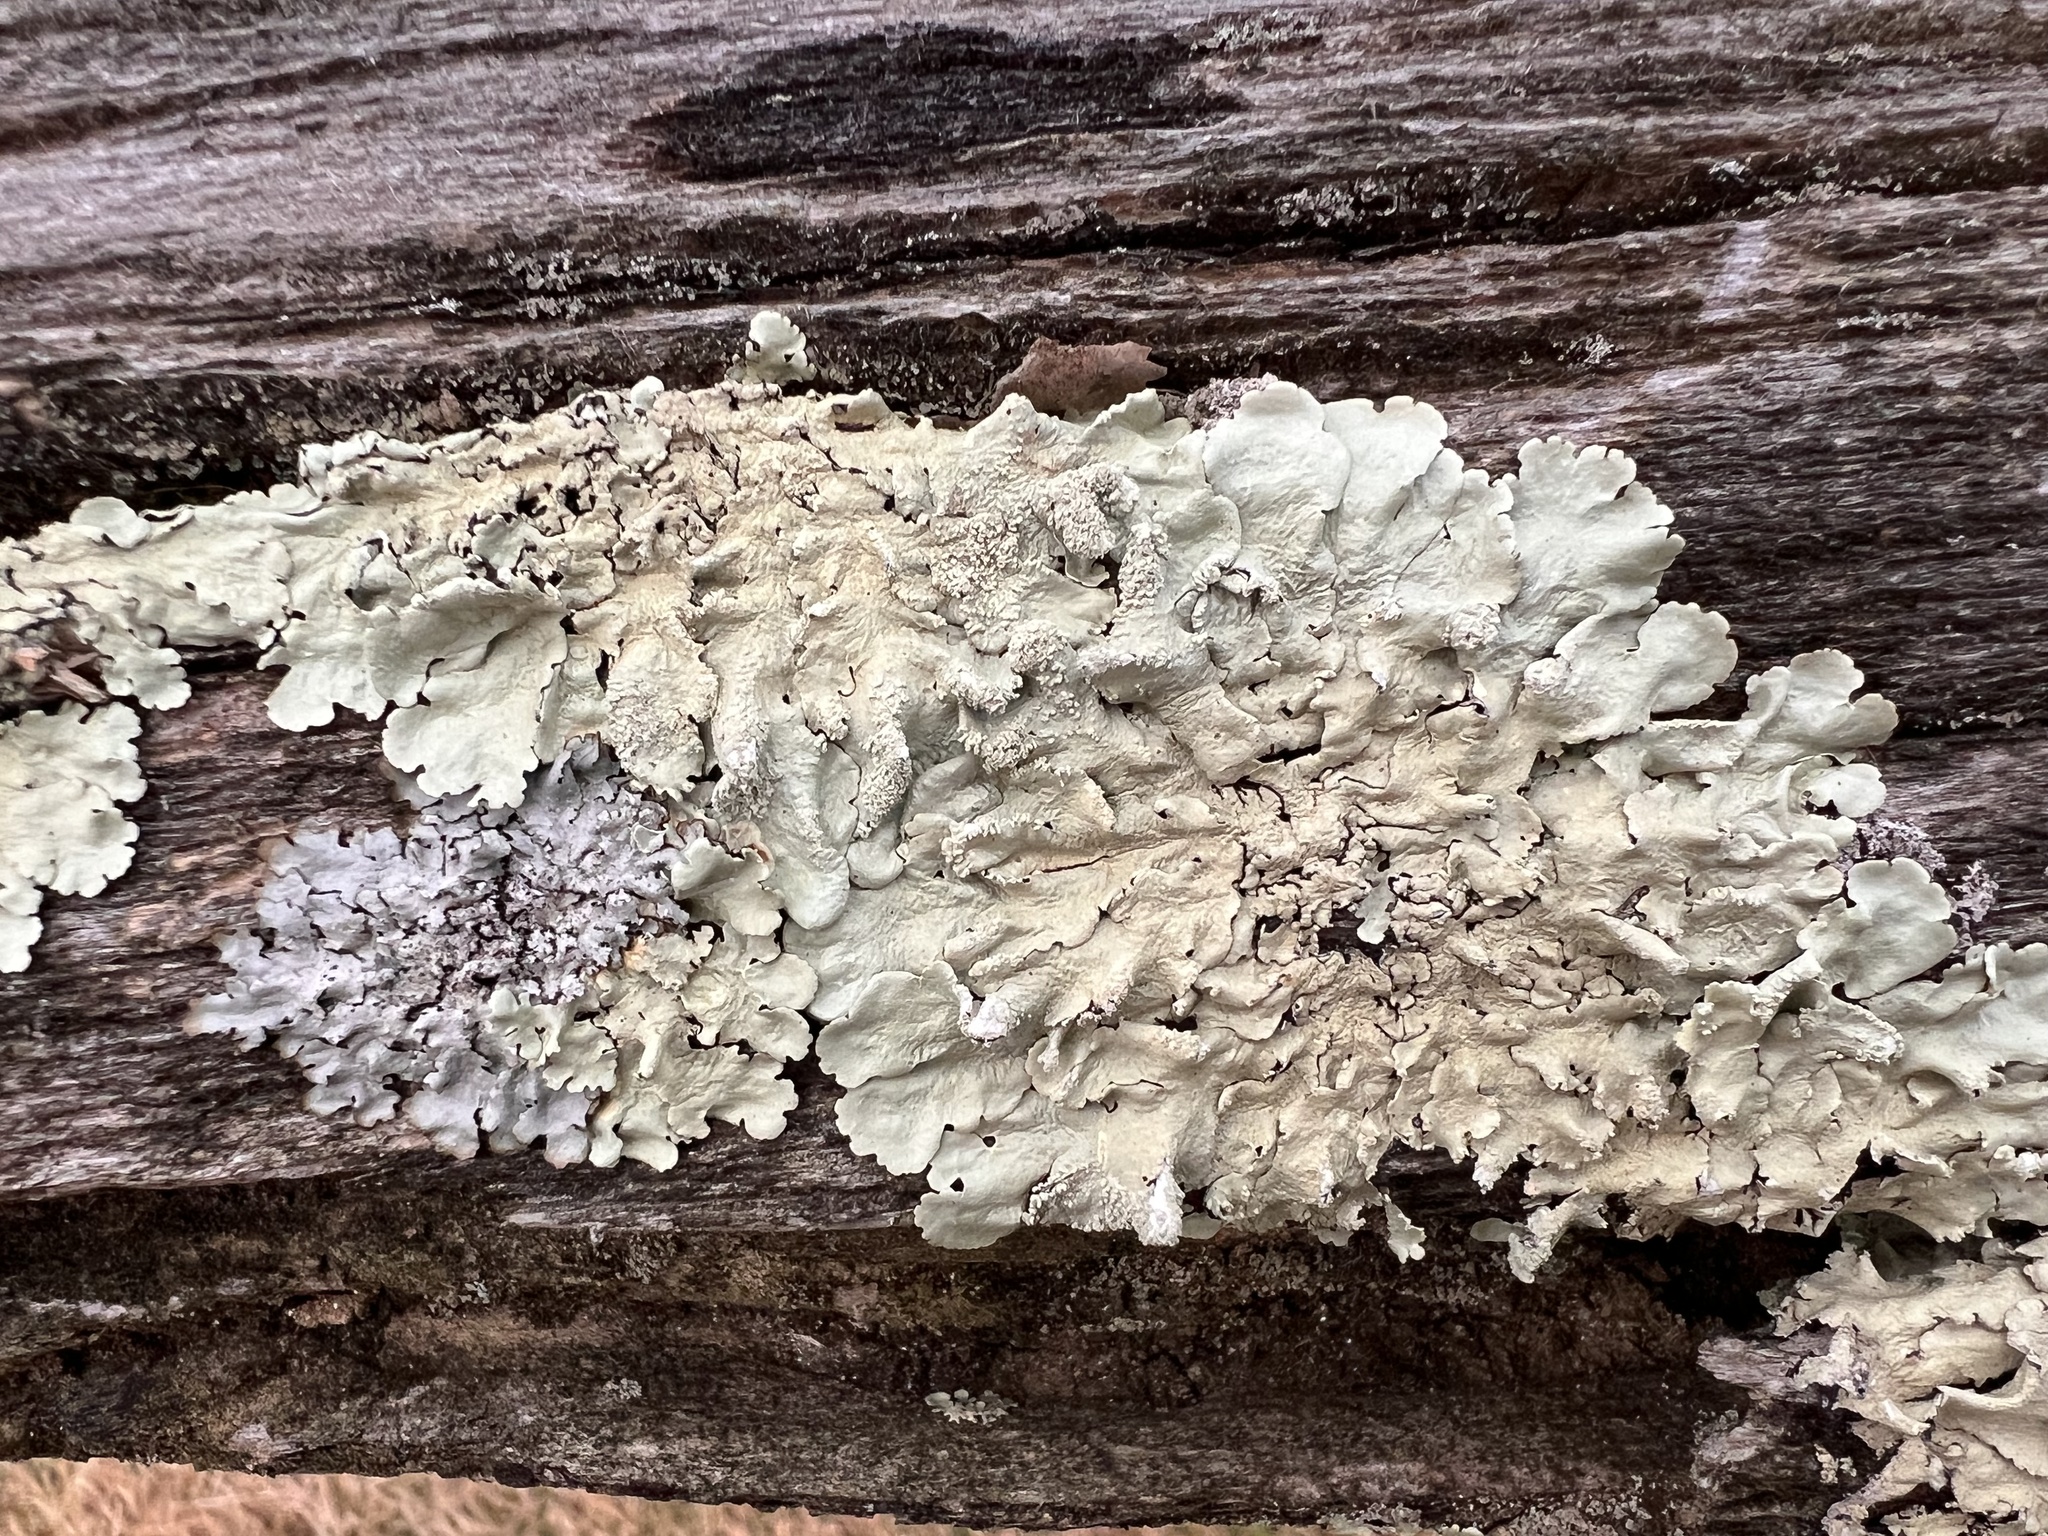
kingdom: Fungi
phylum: Ascomycota
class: Lecanoromycetes
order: Lecanorales
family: Parmeliaceae
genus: Punctelia
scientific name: Punctelia rudecta
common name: Rough speckled shield lichen
